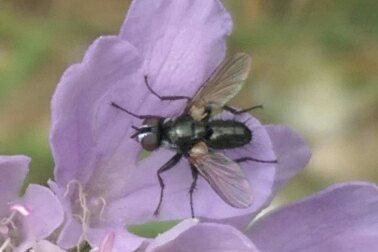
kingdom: Animalia
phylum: Arthropoda
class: Insecta
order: Diptera
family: Tachinidae
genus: Phania
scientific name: Phania funesta
